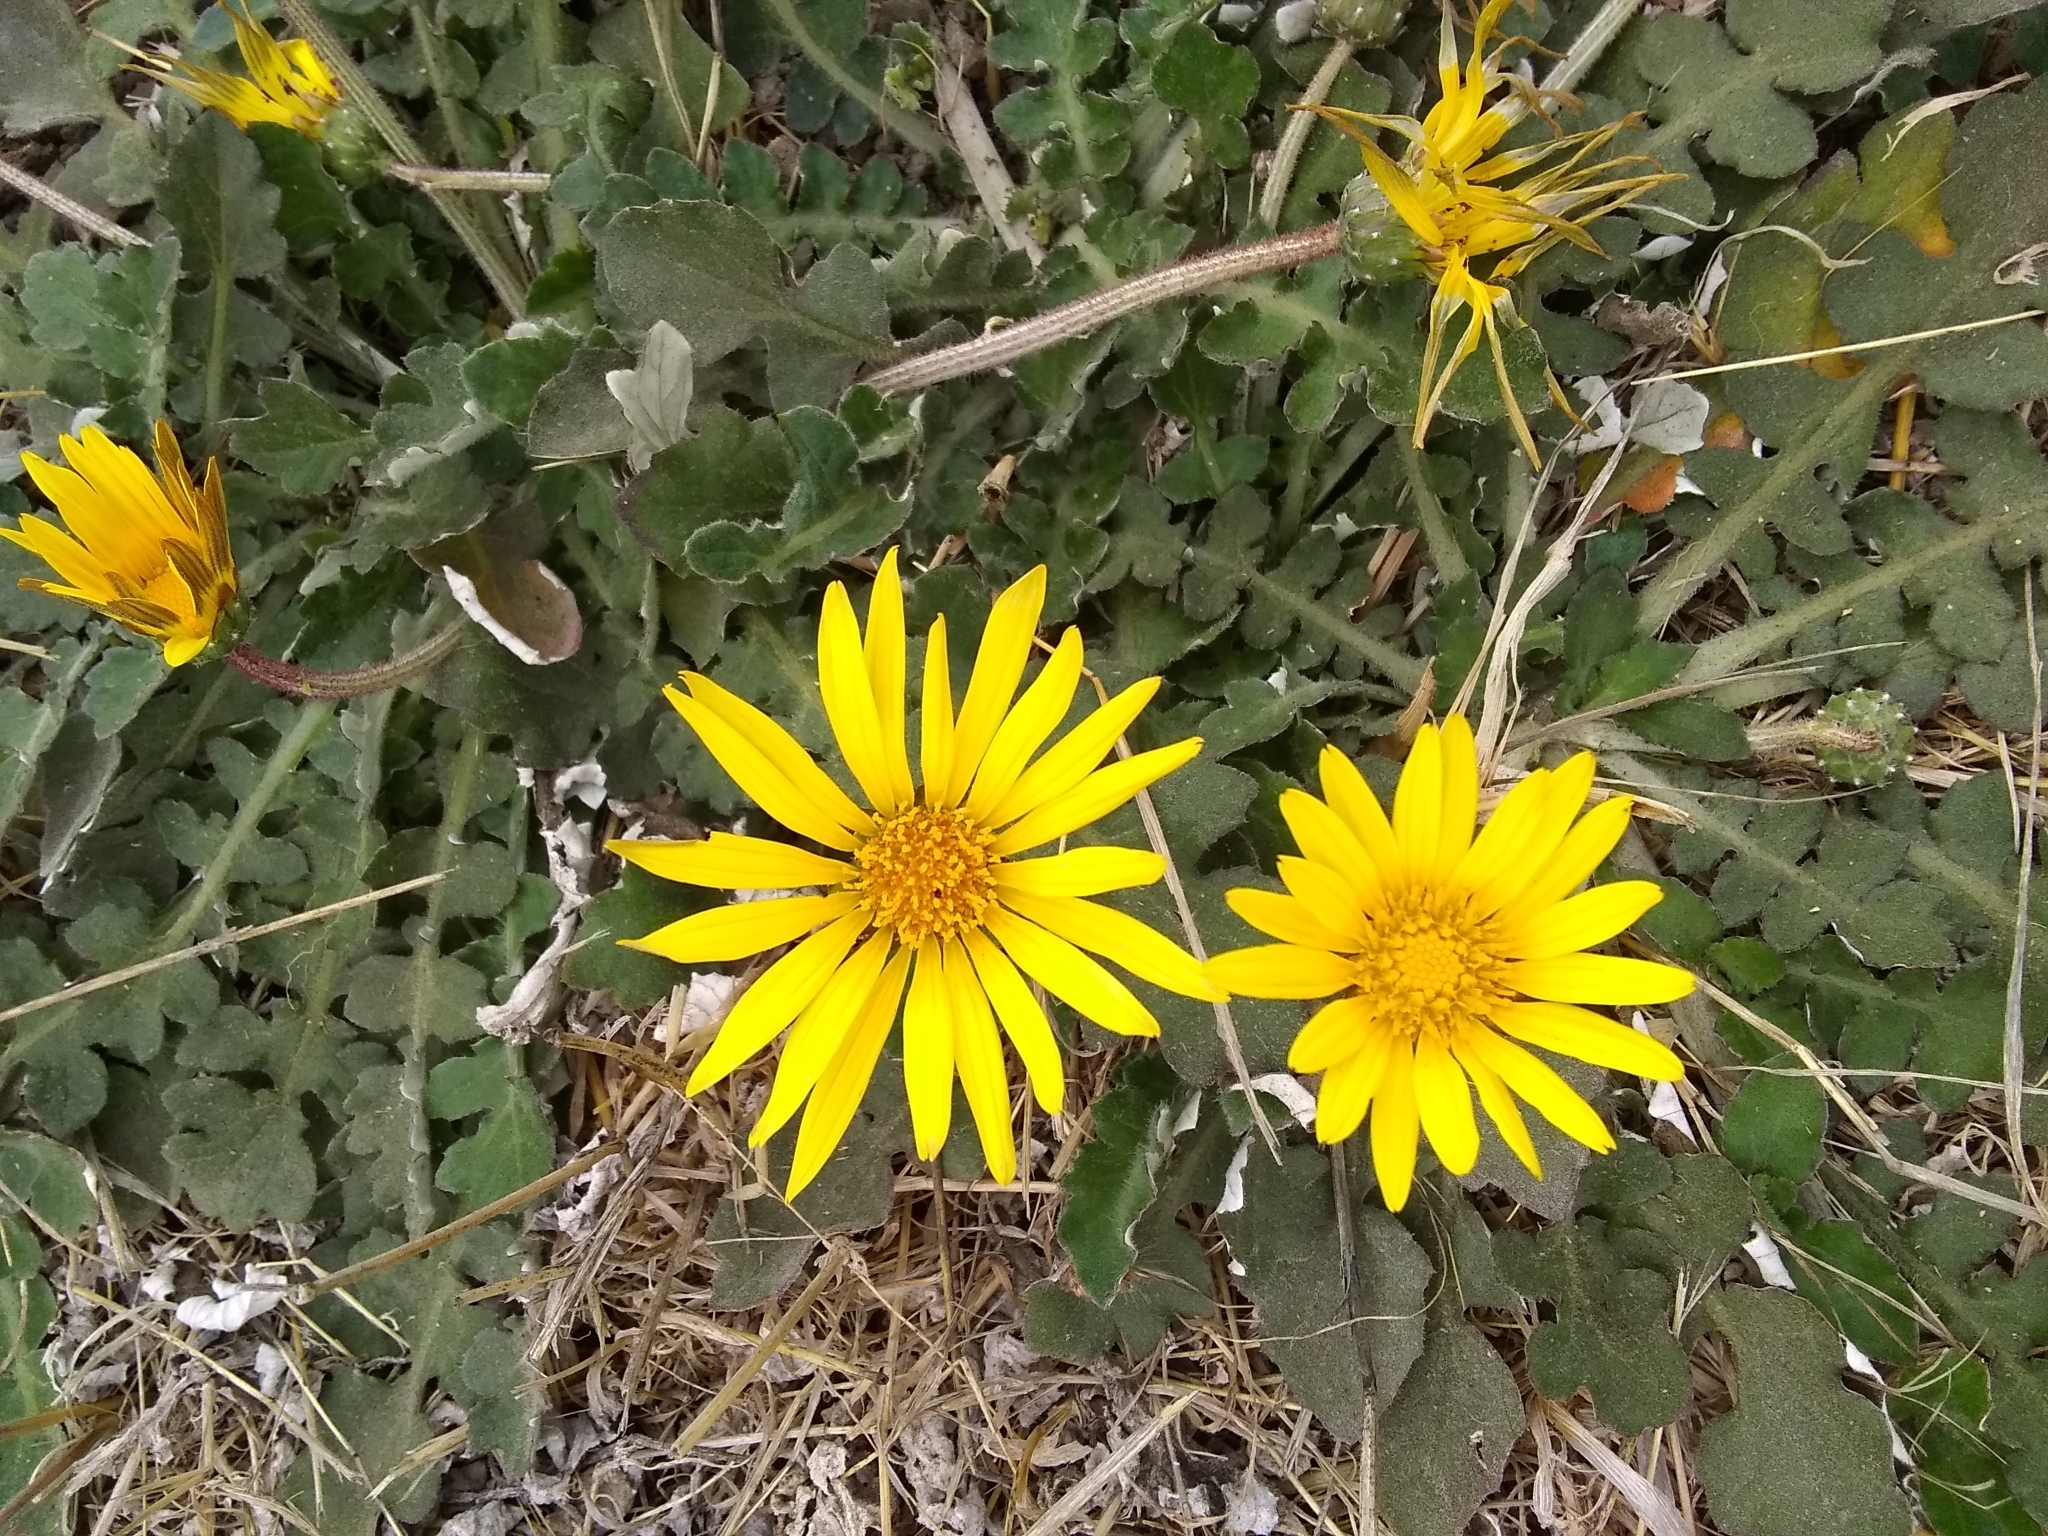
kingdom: Plantae
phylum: Tracheophyta
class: Magnoliopsida
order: Asterales
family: Asteraceae
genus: Arctotheca
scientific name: Arctotheca prostrata
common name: Capeweed
